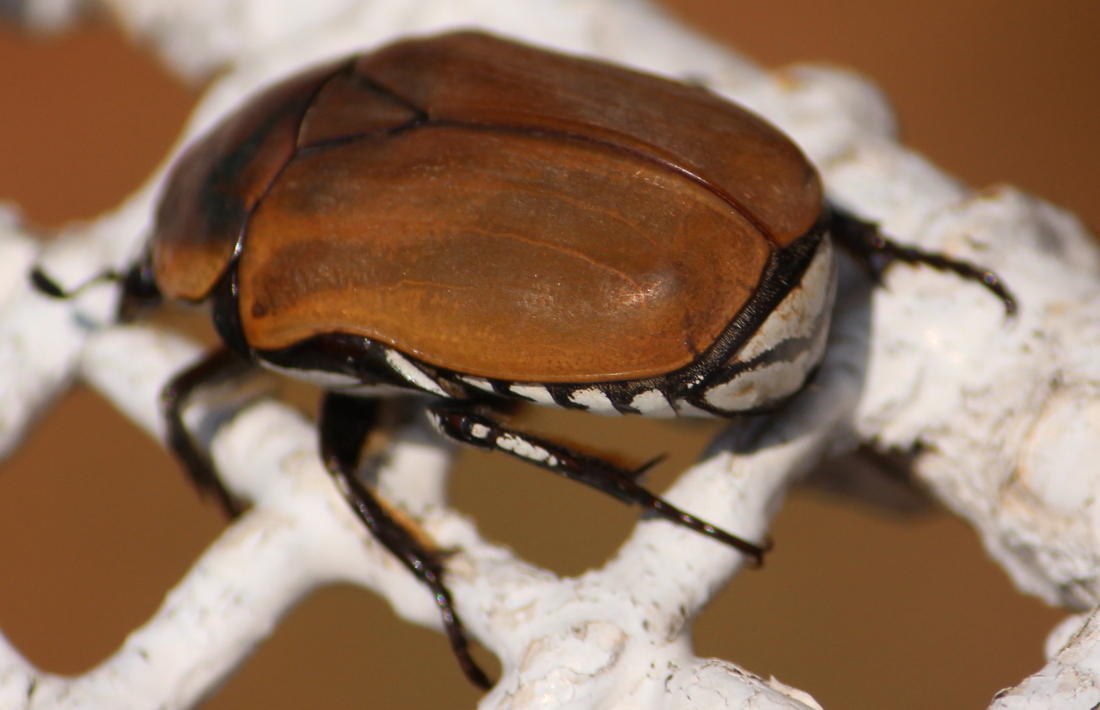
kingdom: Animalia
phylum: Arthropoda
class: Insecta
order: Coleoptera
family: Scarabaeidae
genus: Dischista
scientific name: Dischista rufa
